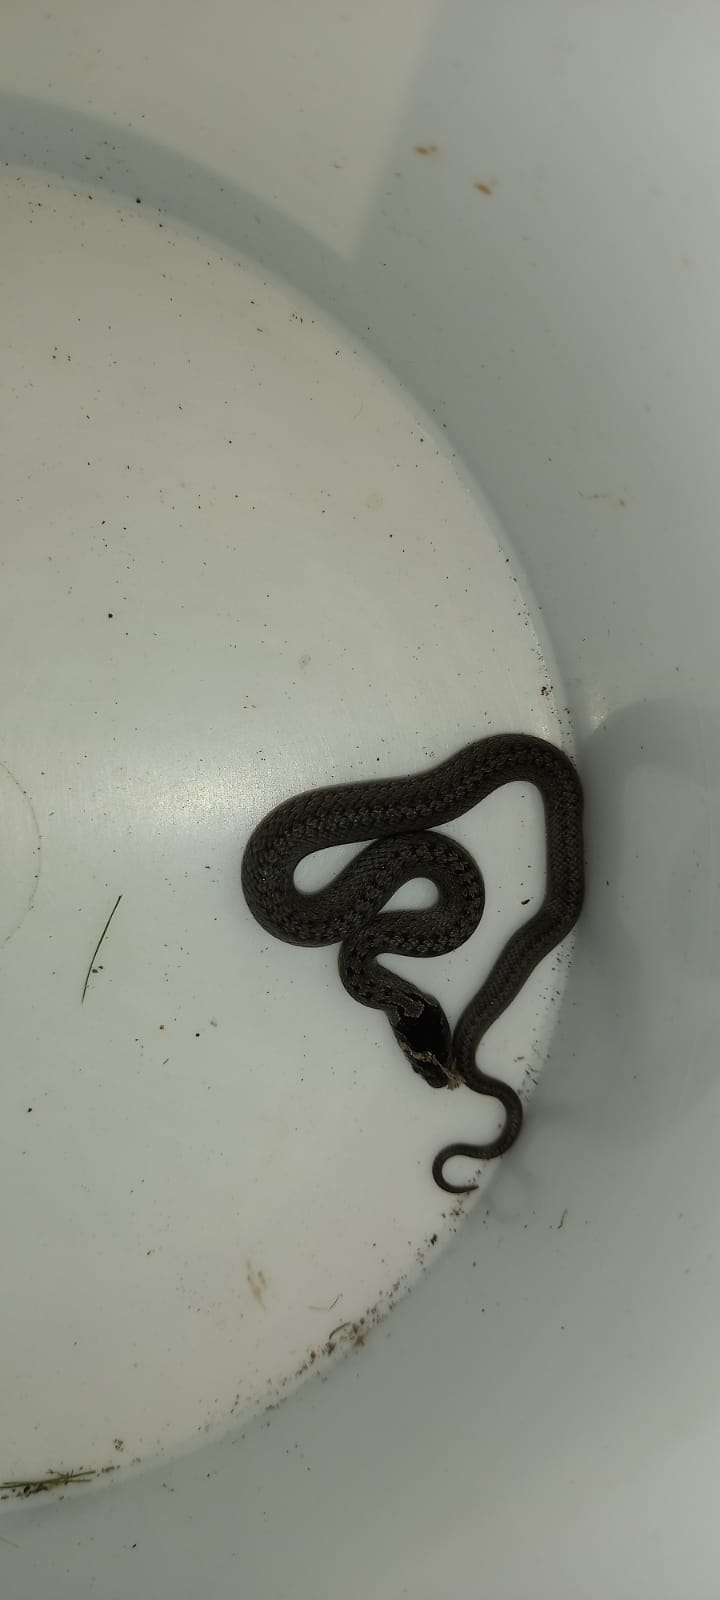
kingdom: Animalia
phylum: Chordata
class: Squamata
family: Colubridae
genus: Coronella
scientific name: Coronella austriaca
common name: Smooth snake
